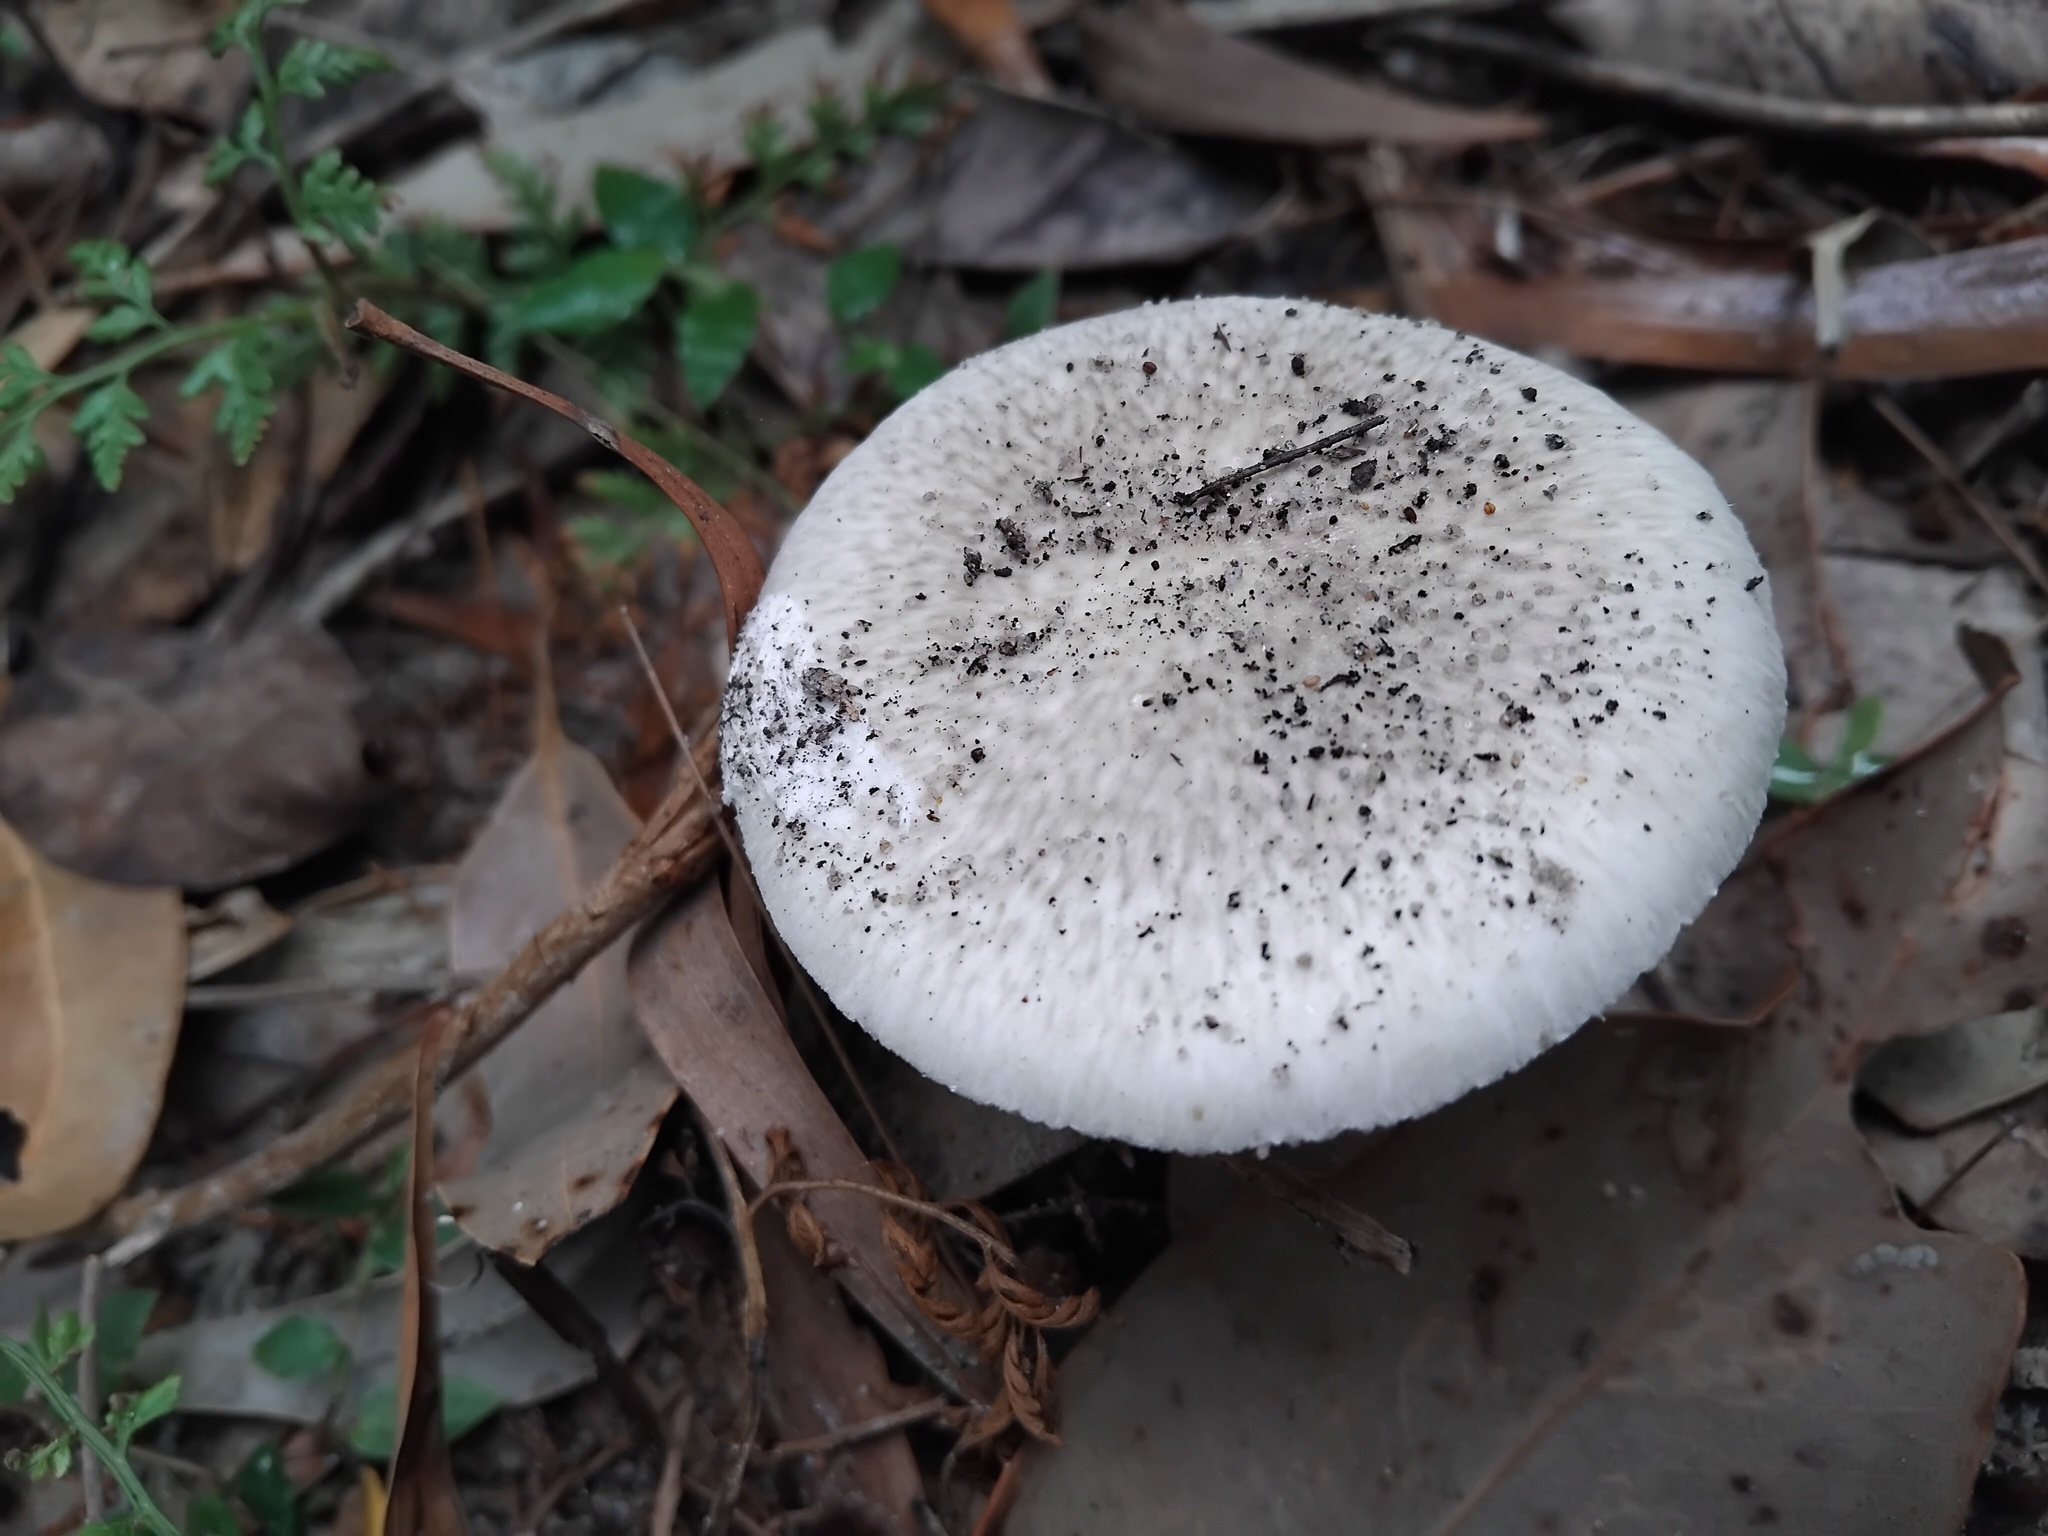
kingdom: Fungi
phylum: Basidiomycota
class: Agaricomycetes
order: Agaricales
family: Amanitaceae
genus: Amanita
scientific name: Amanita marmorata
